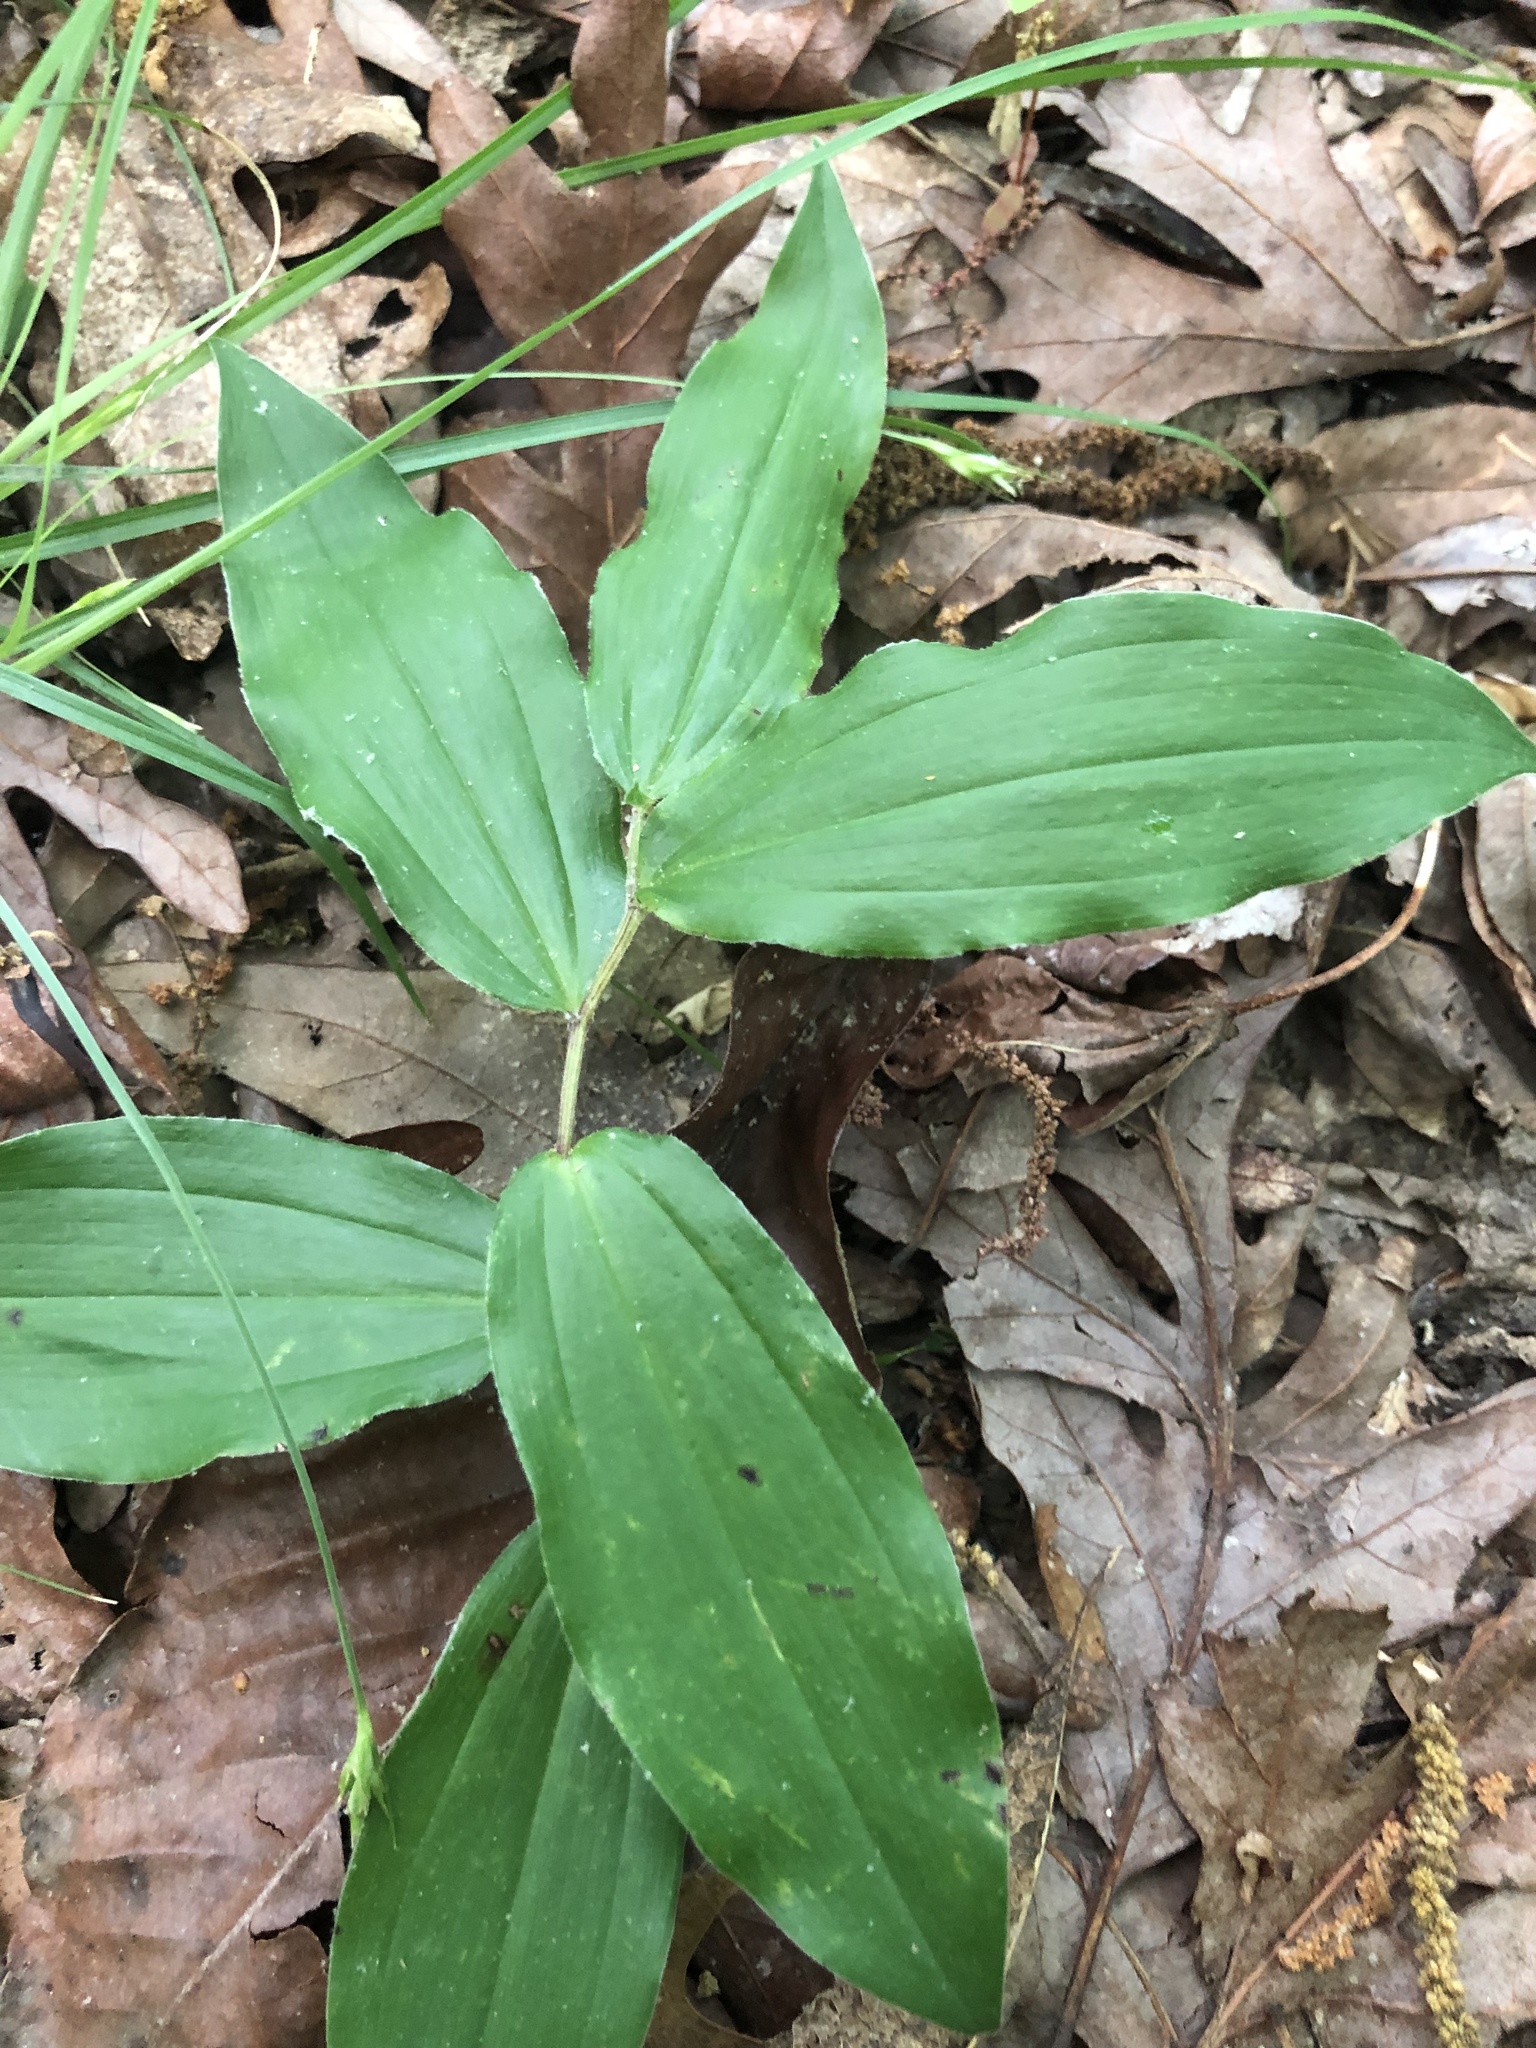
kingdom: Plantae
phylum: Tracheophyta
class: Liliopsida
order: Asparagales
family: Asparagaceae
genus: Maianthemum
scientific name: Maianthemum racemosum
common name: False spikenard
